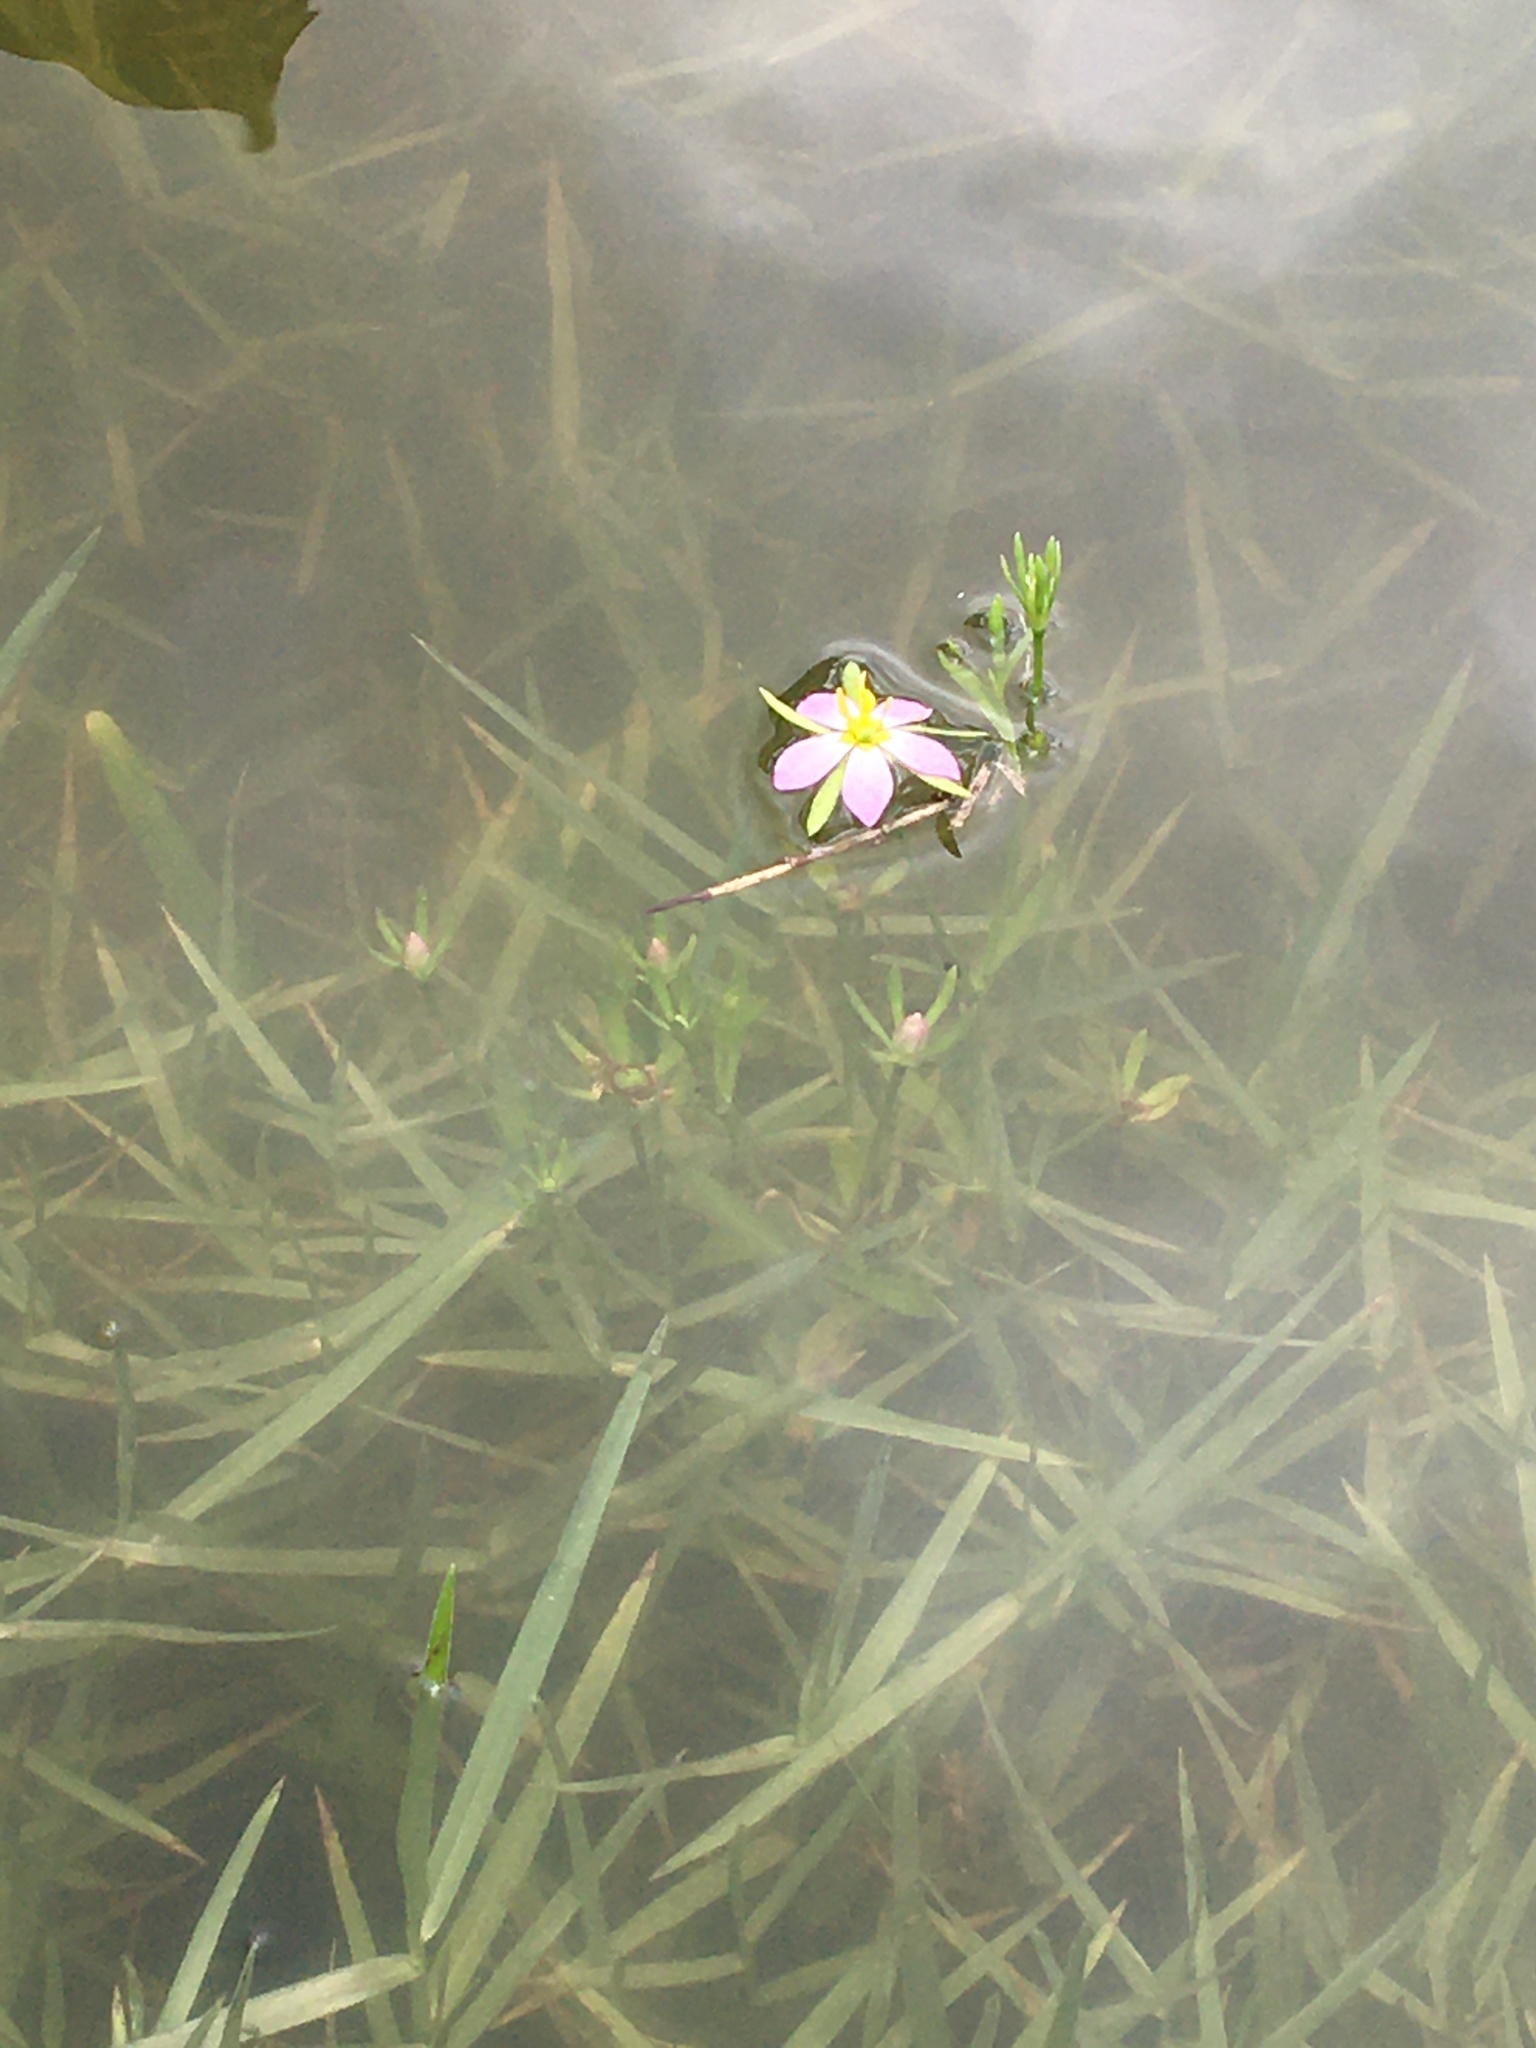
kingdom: Plantae
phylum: Tracheophyta
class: Magnoliopsida
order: Gentianales
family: Gentianaceae
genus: Sabatia
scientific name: Sabatia calycina
